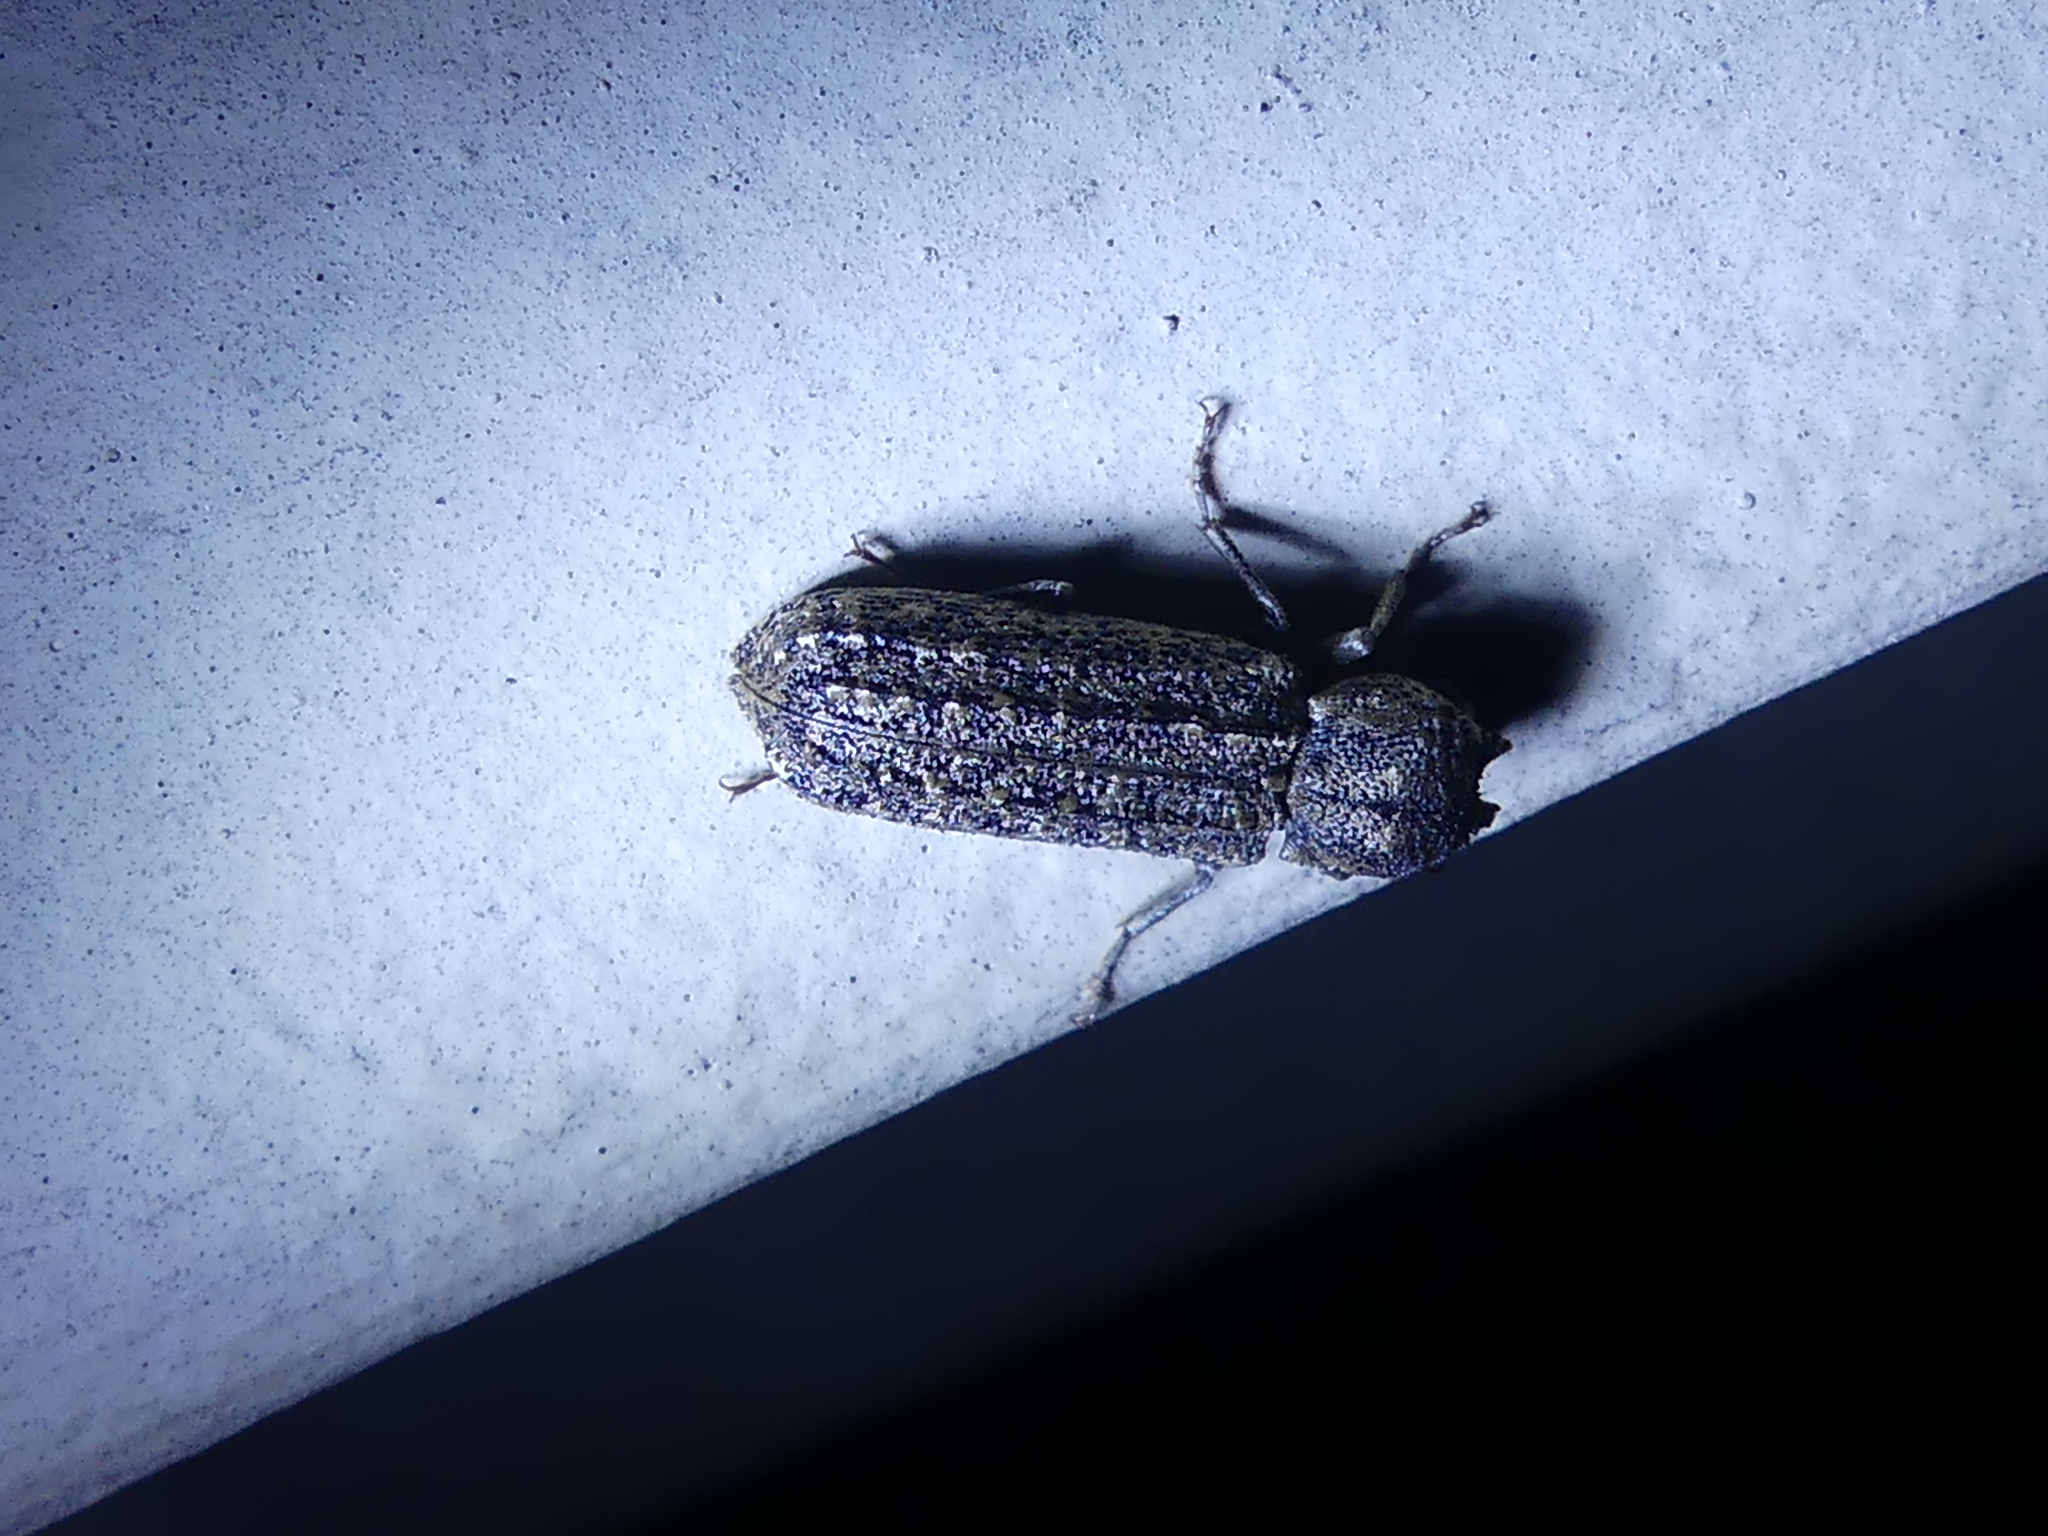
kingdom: Animalia
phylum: Arthropoda
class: Insecta
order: Coleoptera
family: Bostrichidae
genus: Lichenophanes
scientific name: Lichenophanes bicornis
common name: Two-horned powder-post beetle
